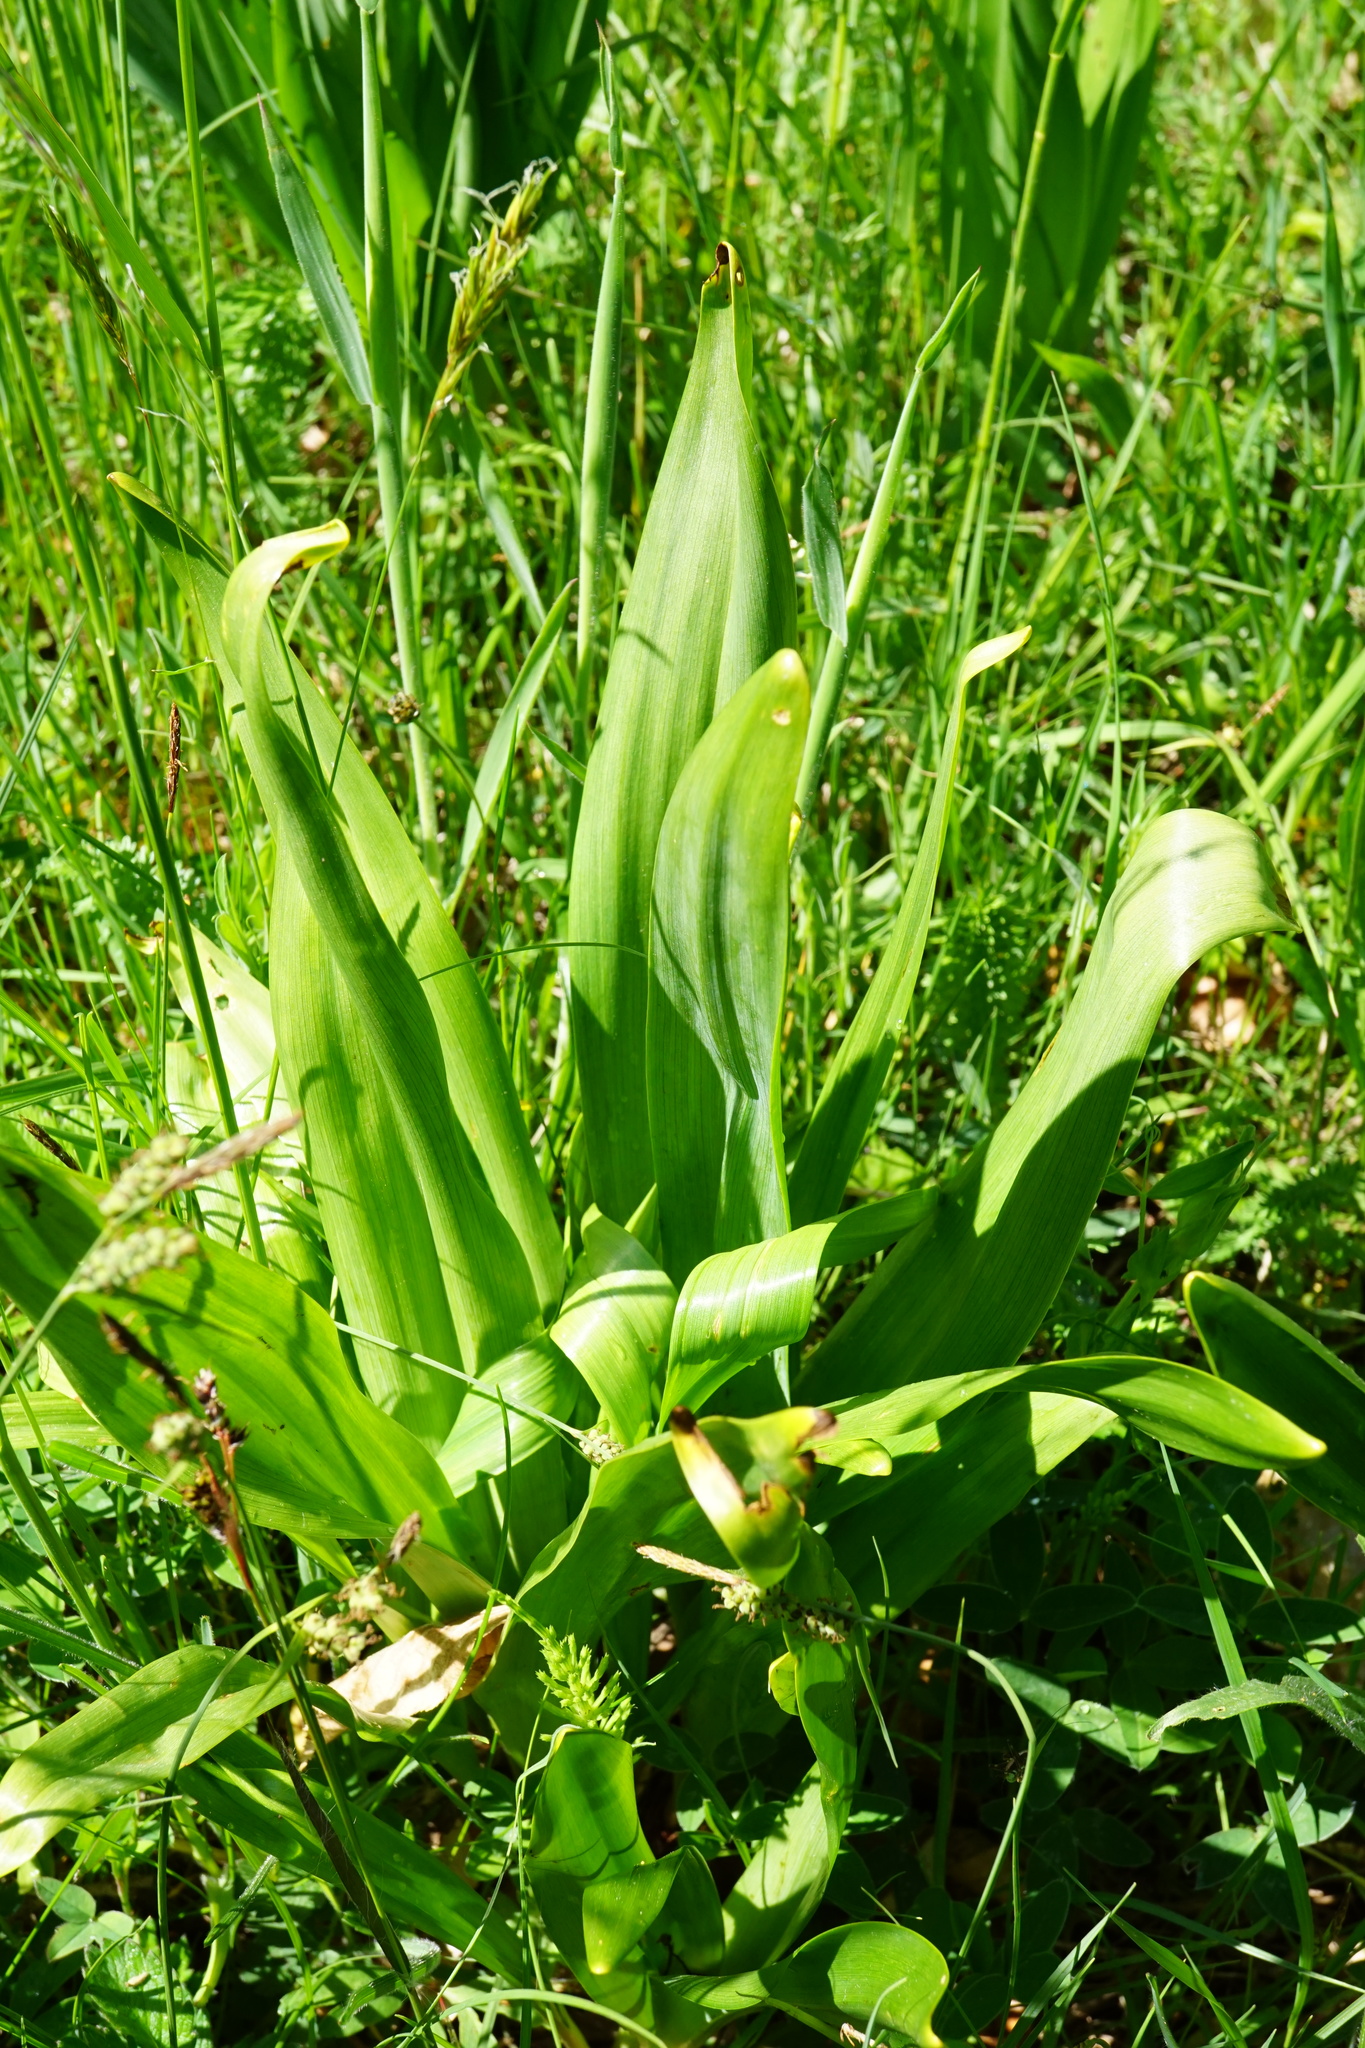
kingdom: Plantae
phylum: Tracheophyta
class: Liliopsida
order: Liliales
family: Colchicaceae
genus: Colchicum
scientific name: Colchicum autumnale
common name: Autumn crocus
